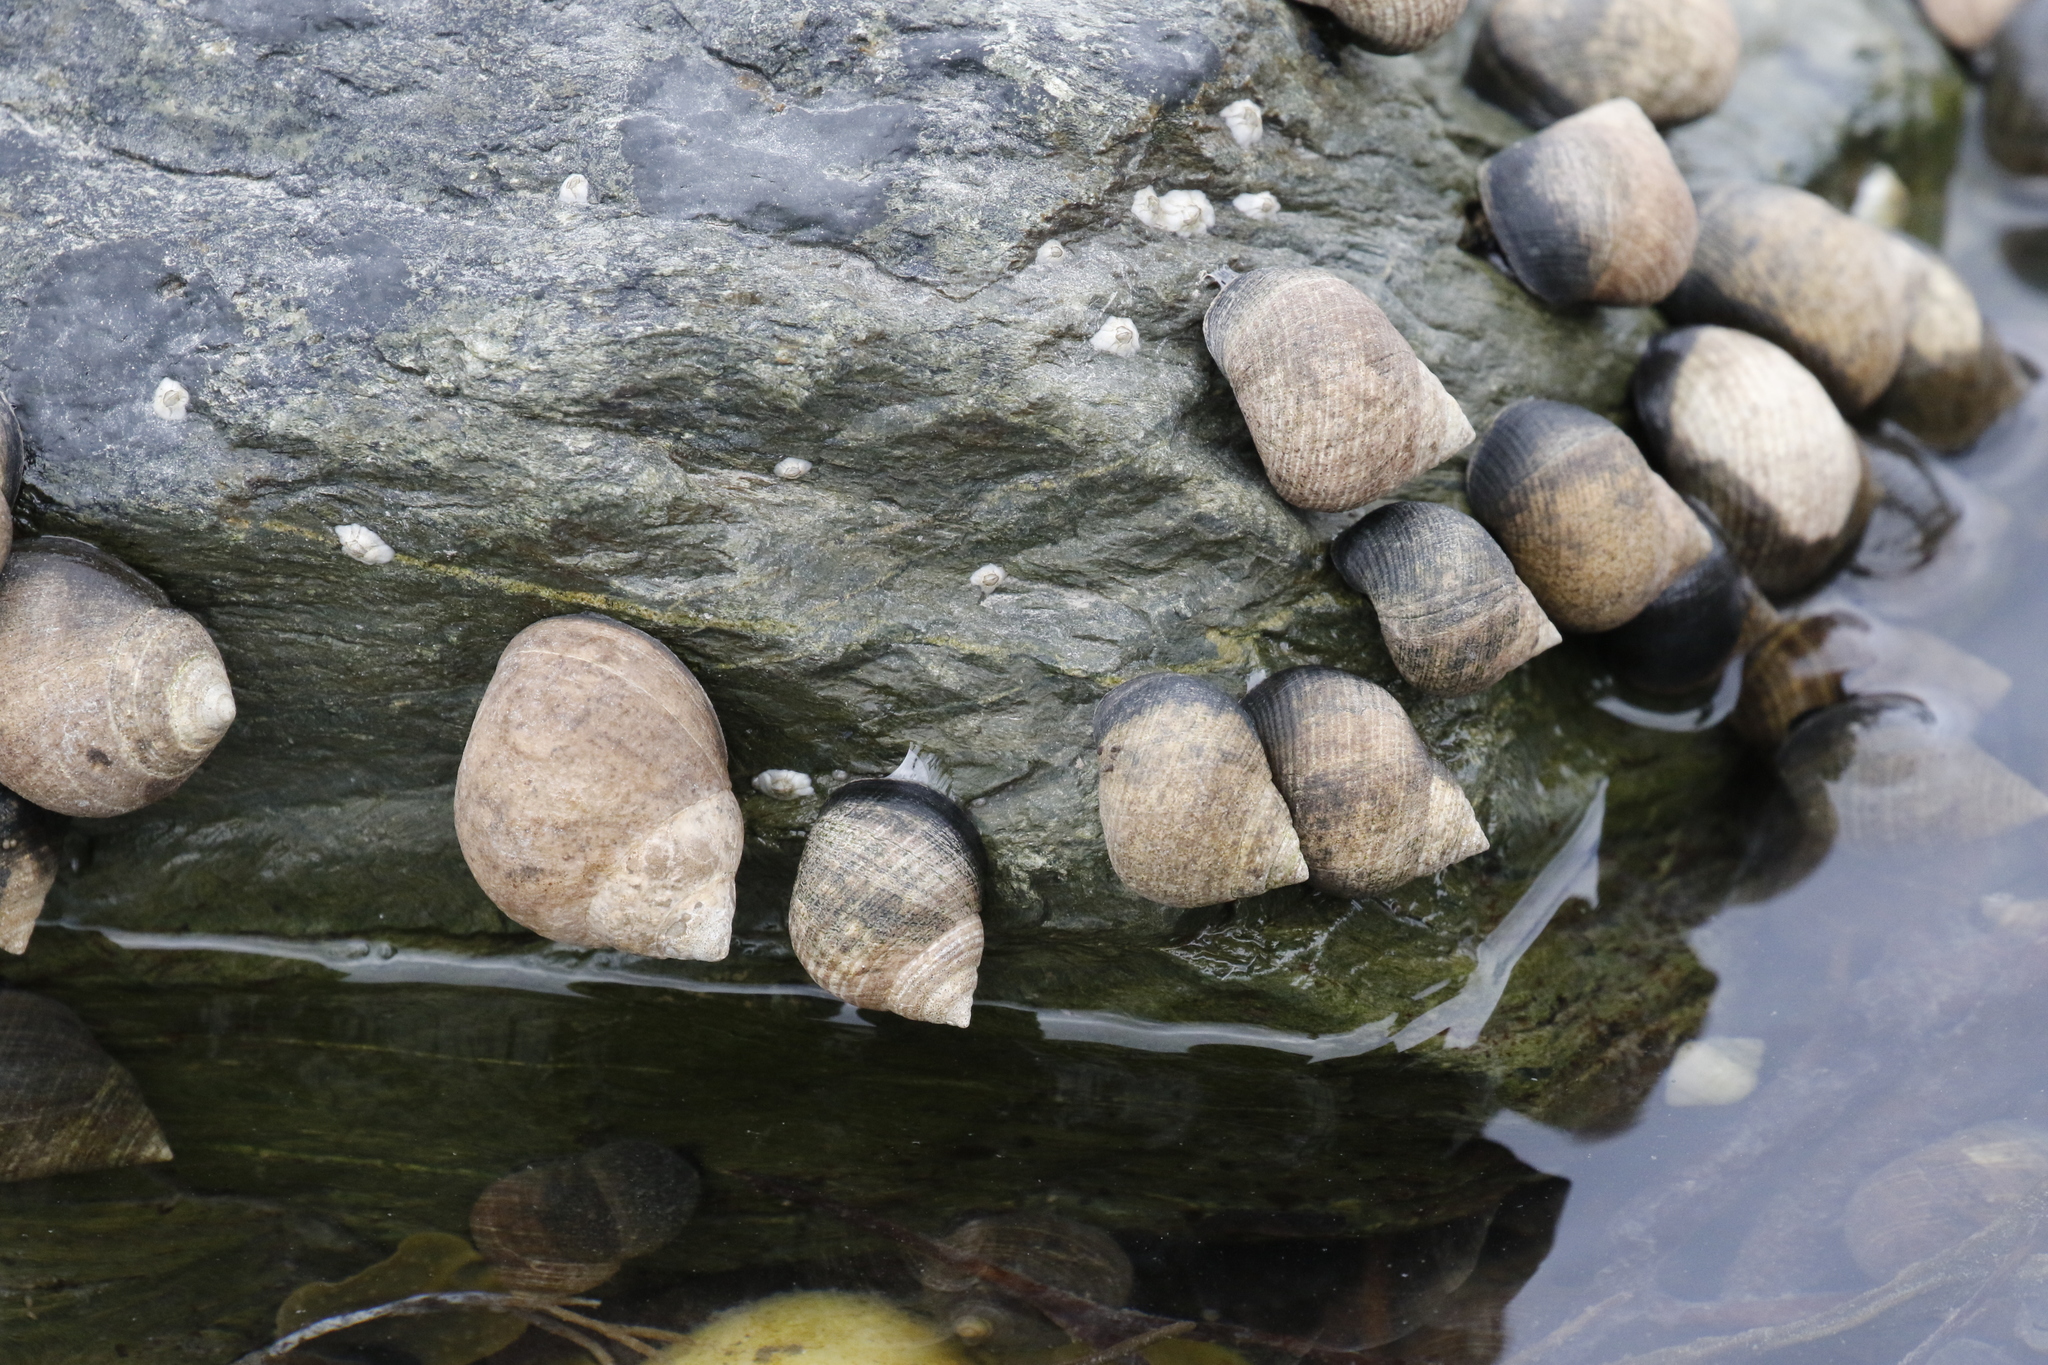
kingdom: Animalia
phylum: Mollusca
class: Gastropoda
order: Littorinimorpha
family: Littorinidae
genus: Littorina
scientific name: Littorina littorea
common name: Common periwinkle
